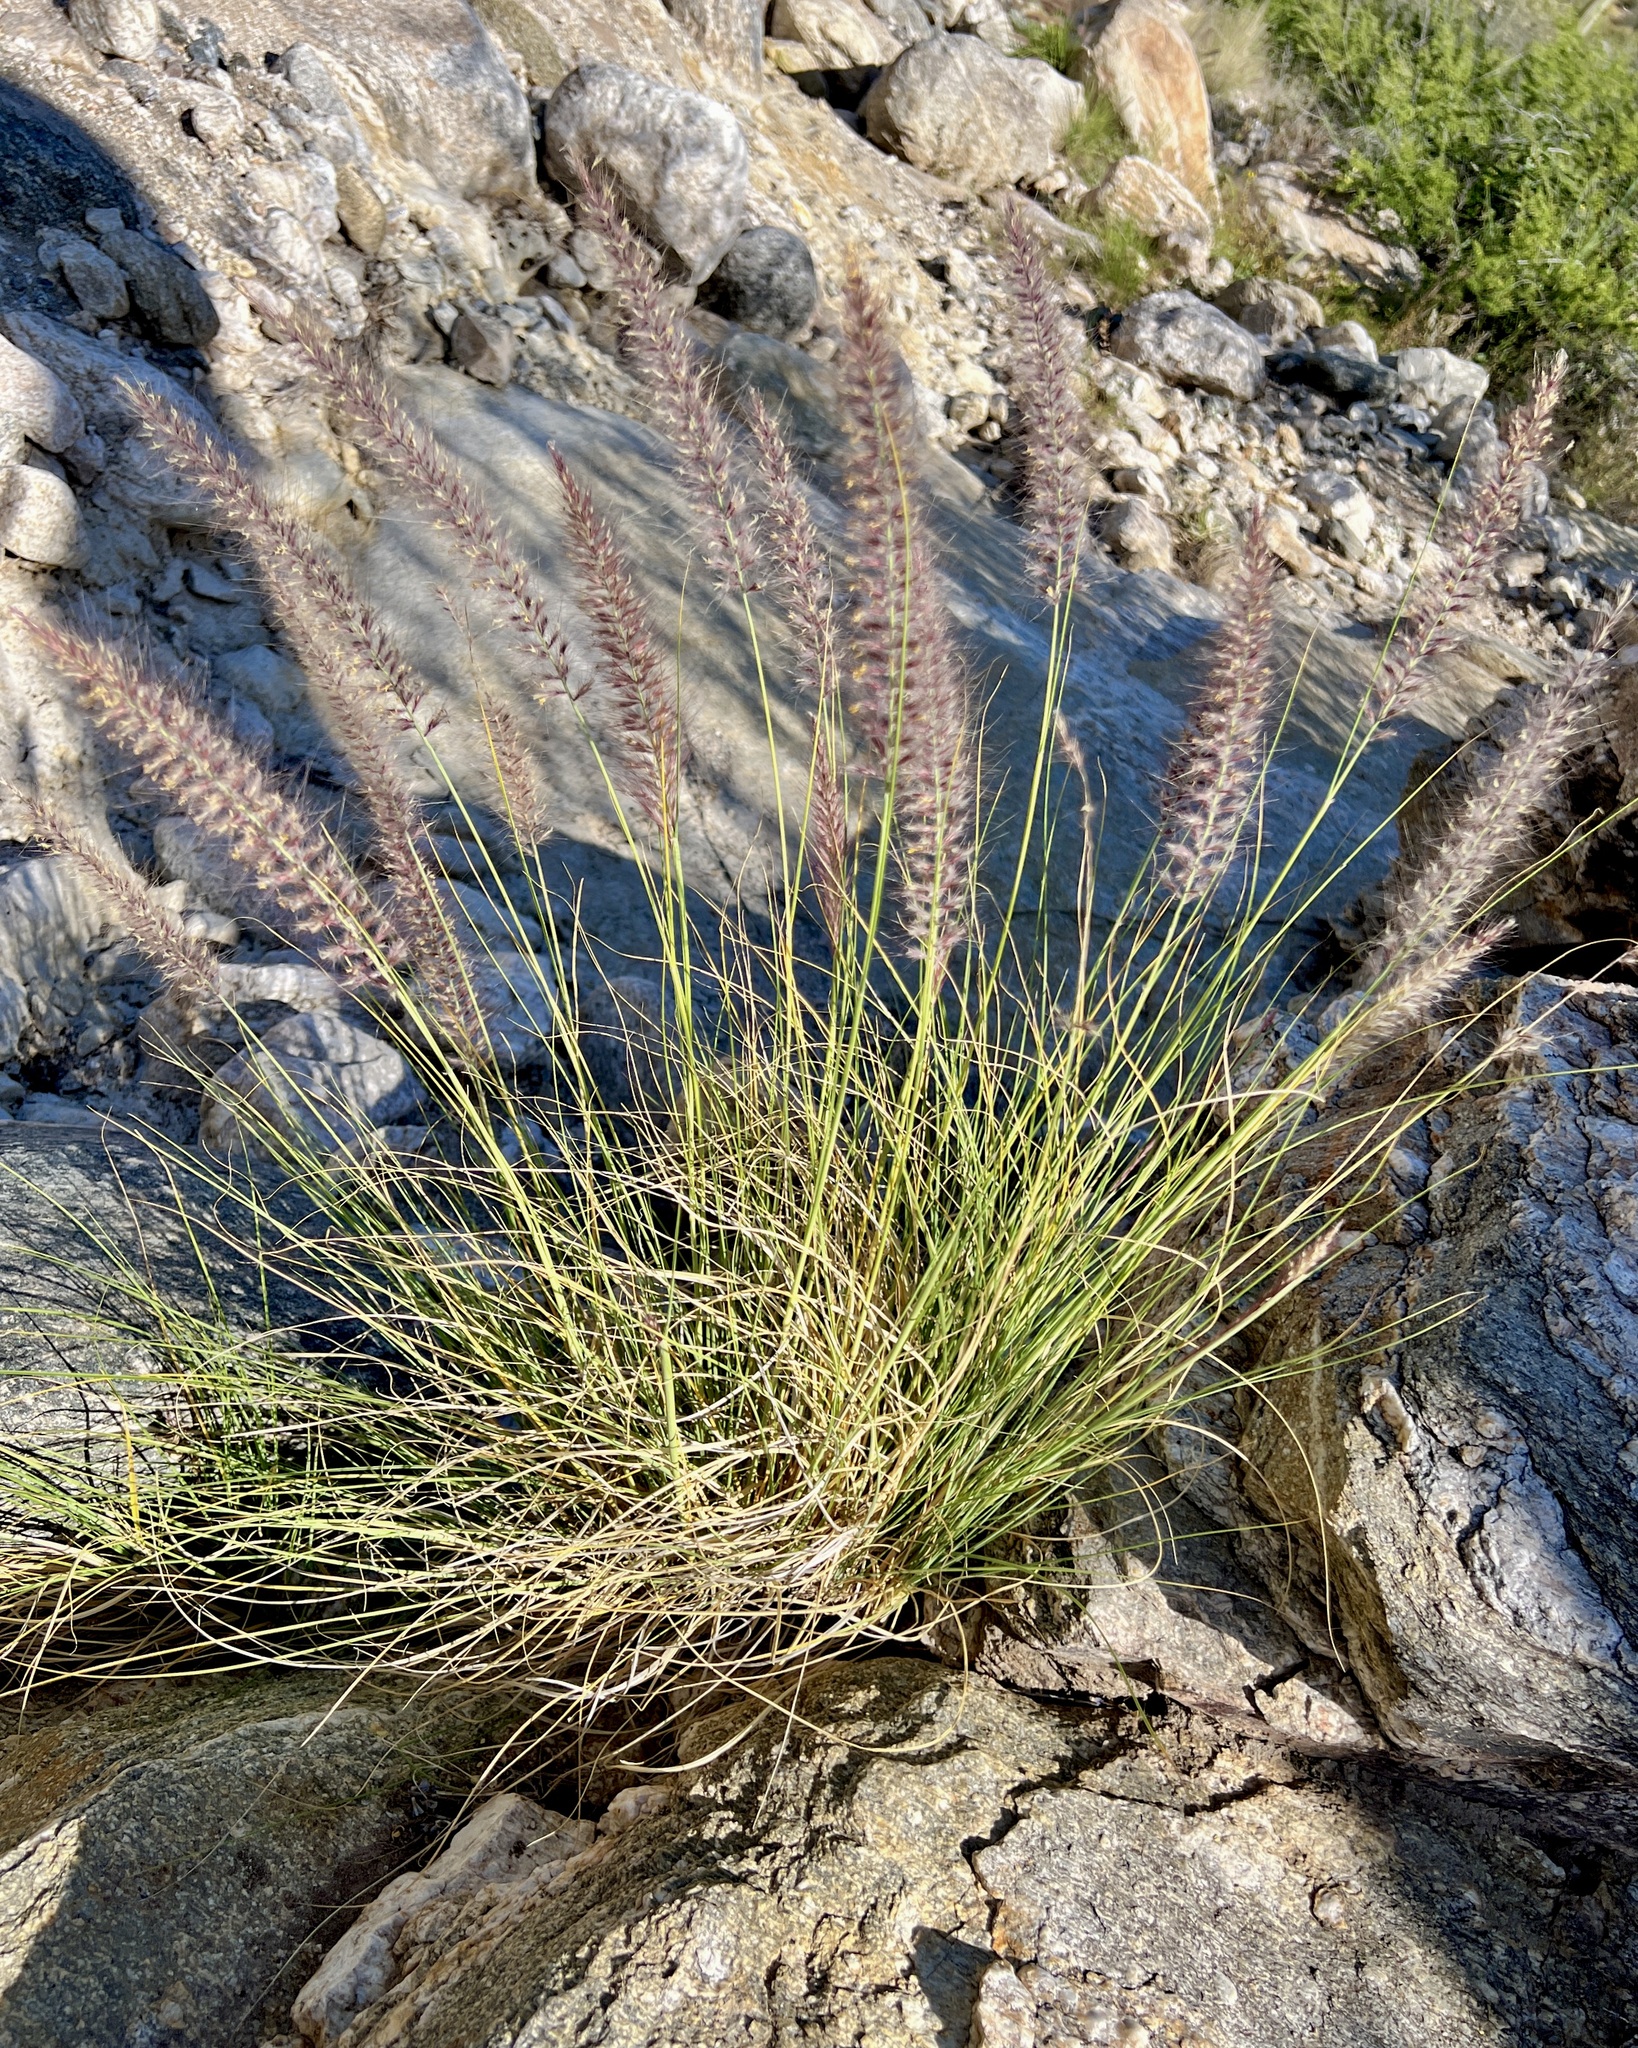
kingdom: Plantae
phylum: Tracheophyta
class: Liliopsida
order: Poales
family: Poaceae
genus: Cenchrus
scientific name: Cenchrus setaceus
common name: Crimson fountaingrass
